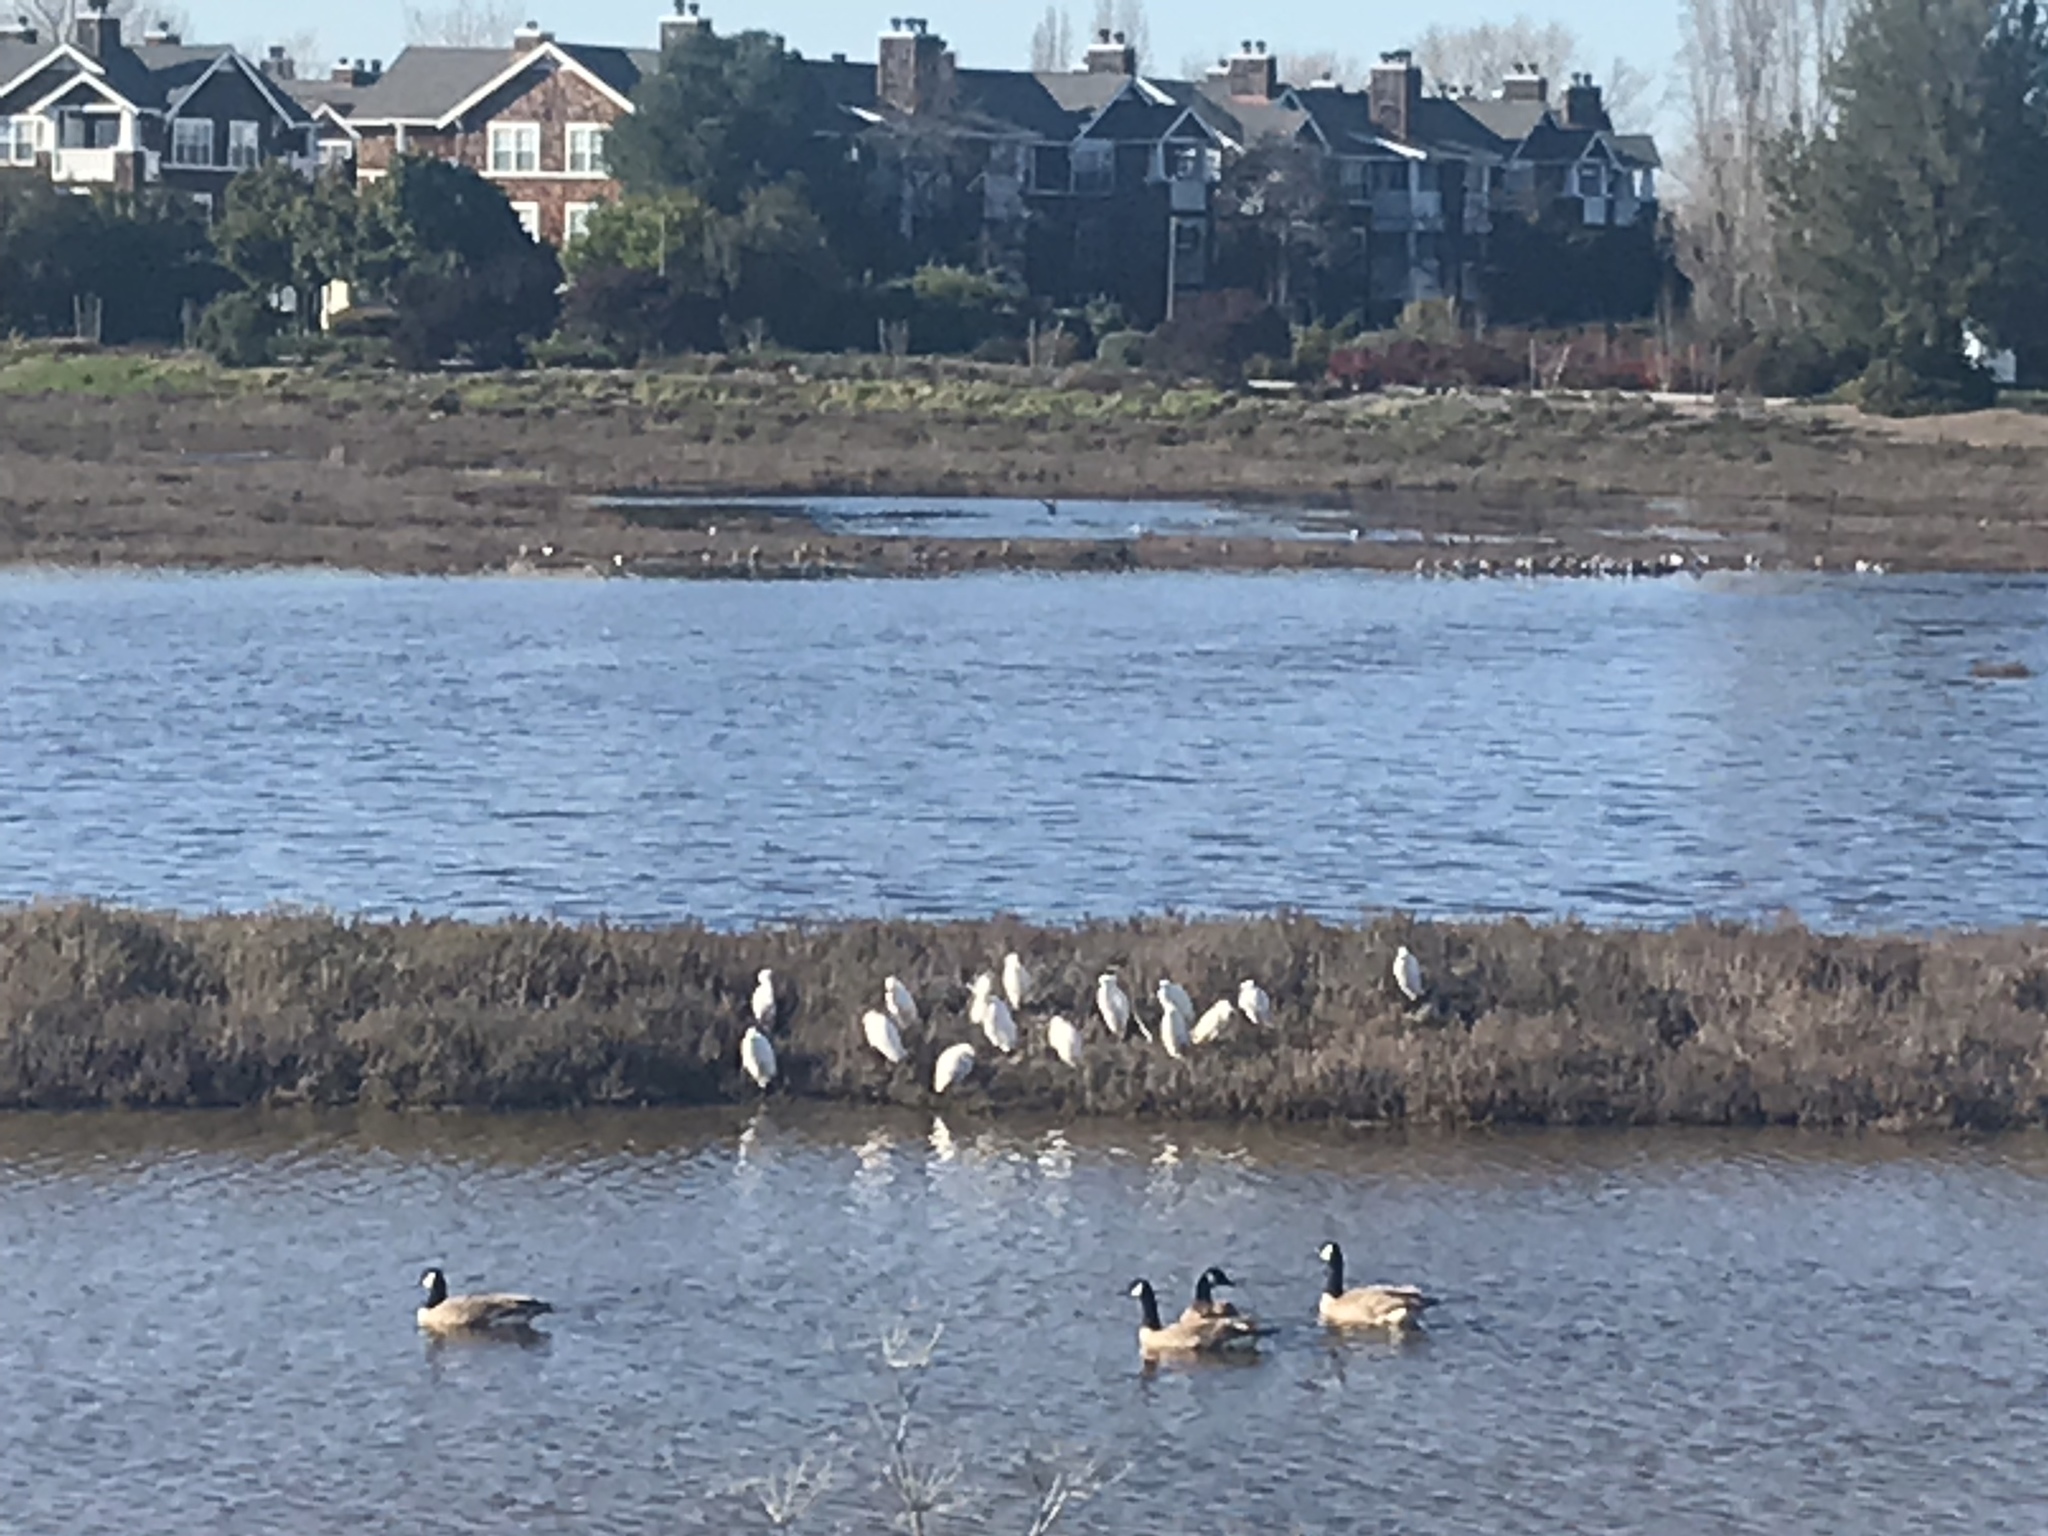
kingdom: Animalia
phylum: Chordata
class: Aves
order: Pelecaniformes
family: Ardeidae
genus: Egretta
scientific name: Egretta thula
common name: Snowy egret
